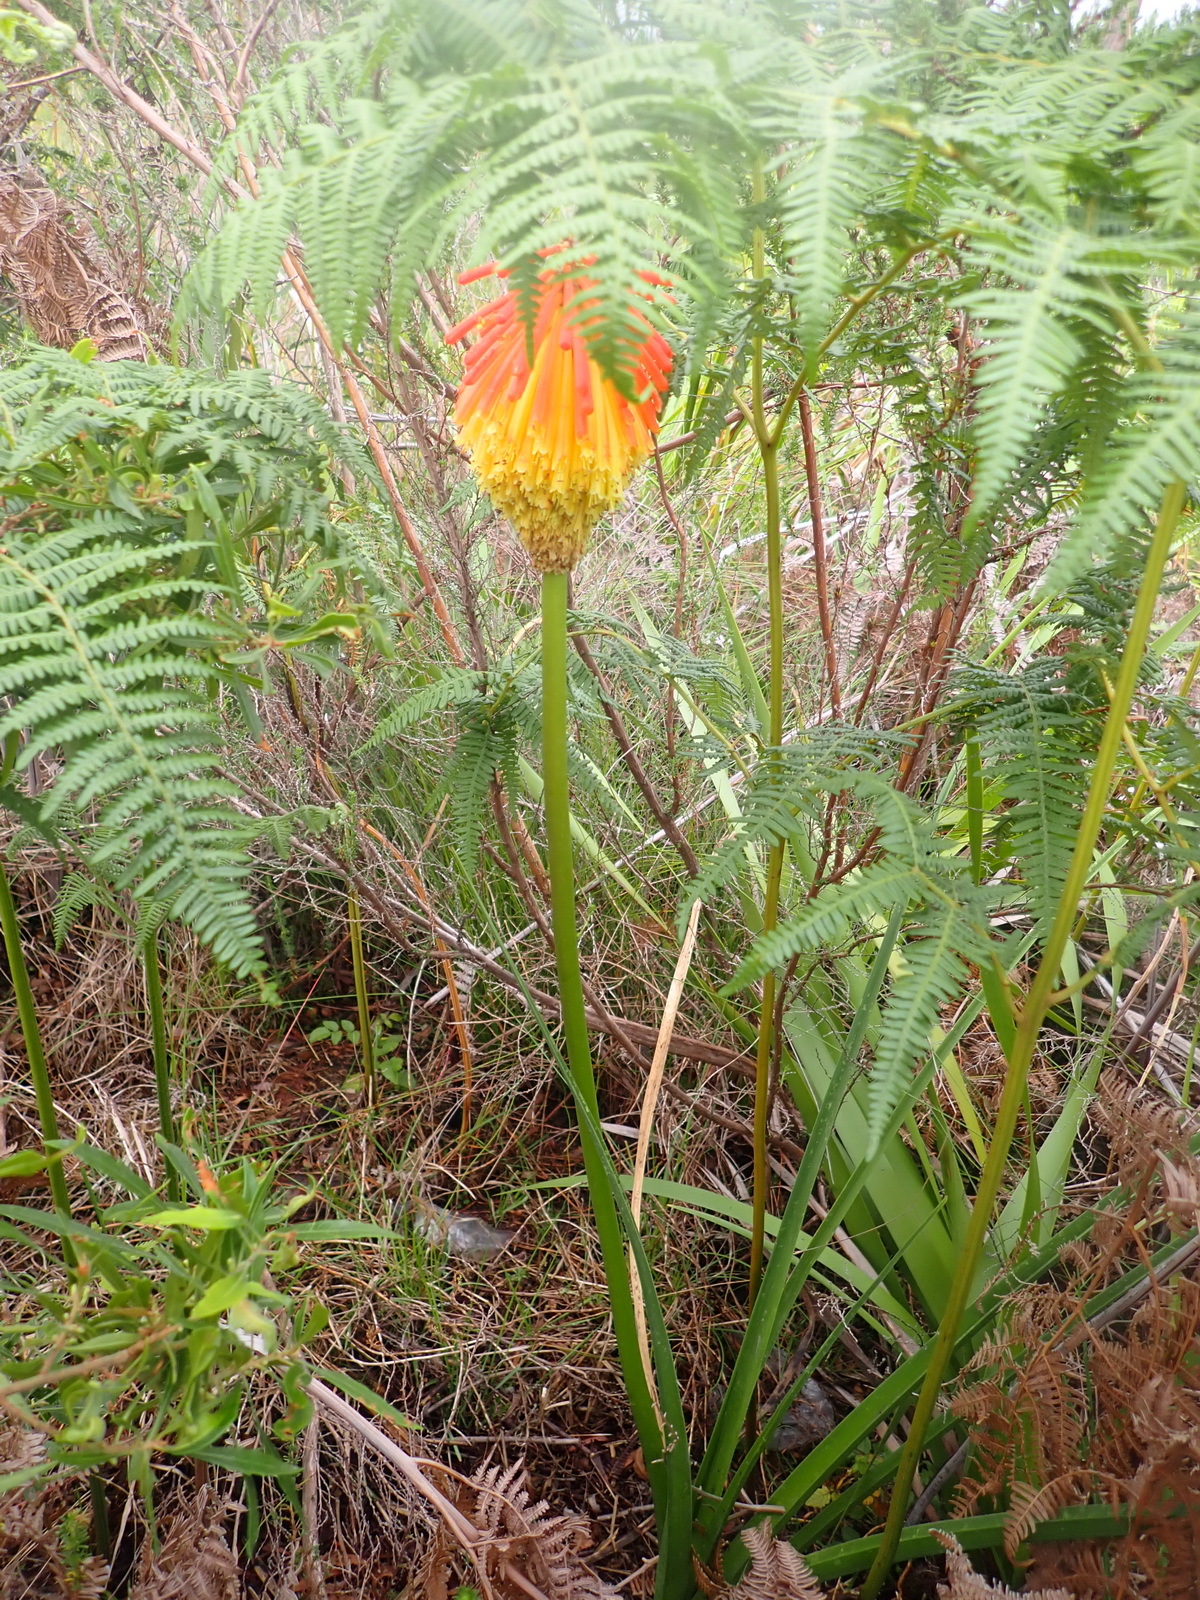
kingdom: Plantae
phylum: Tracheophyta
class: Liliopsida
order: Asparagales
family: Asphodelaceae
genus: Kniphofia
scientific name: Kniphofia uvaria
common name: Red-hot-poker
